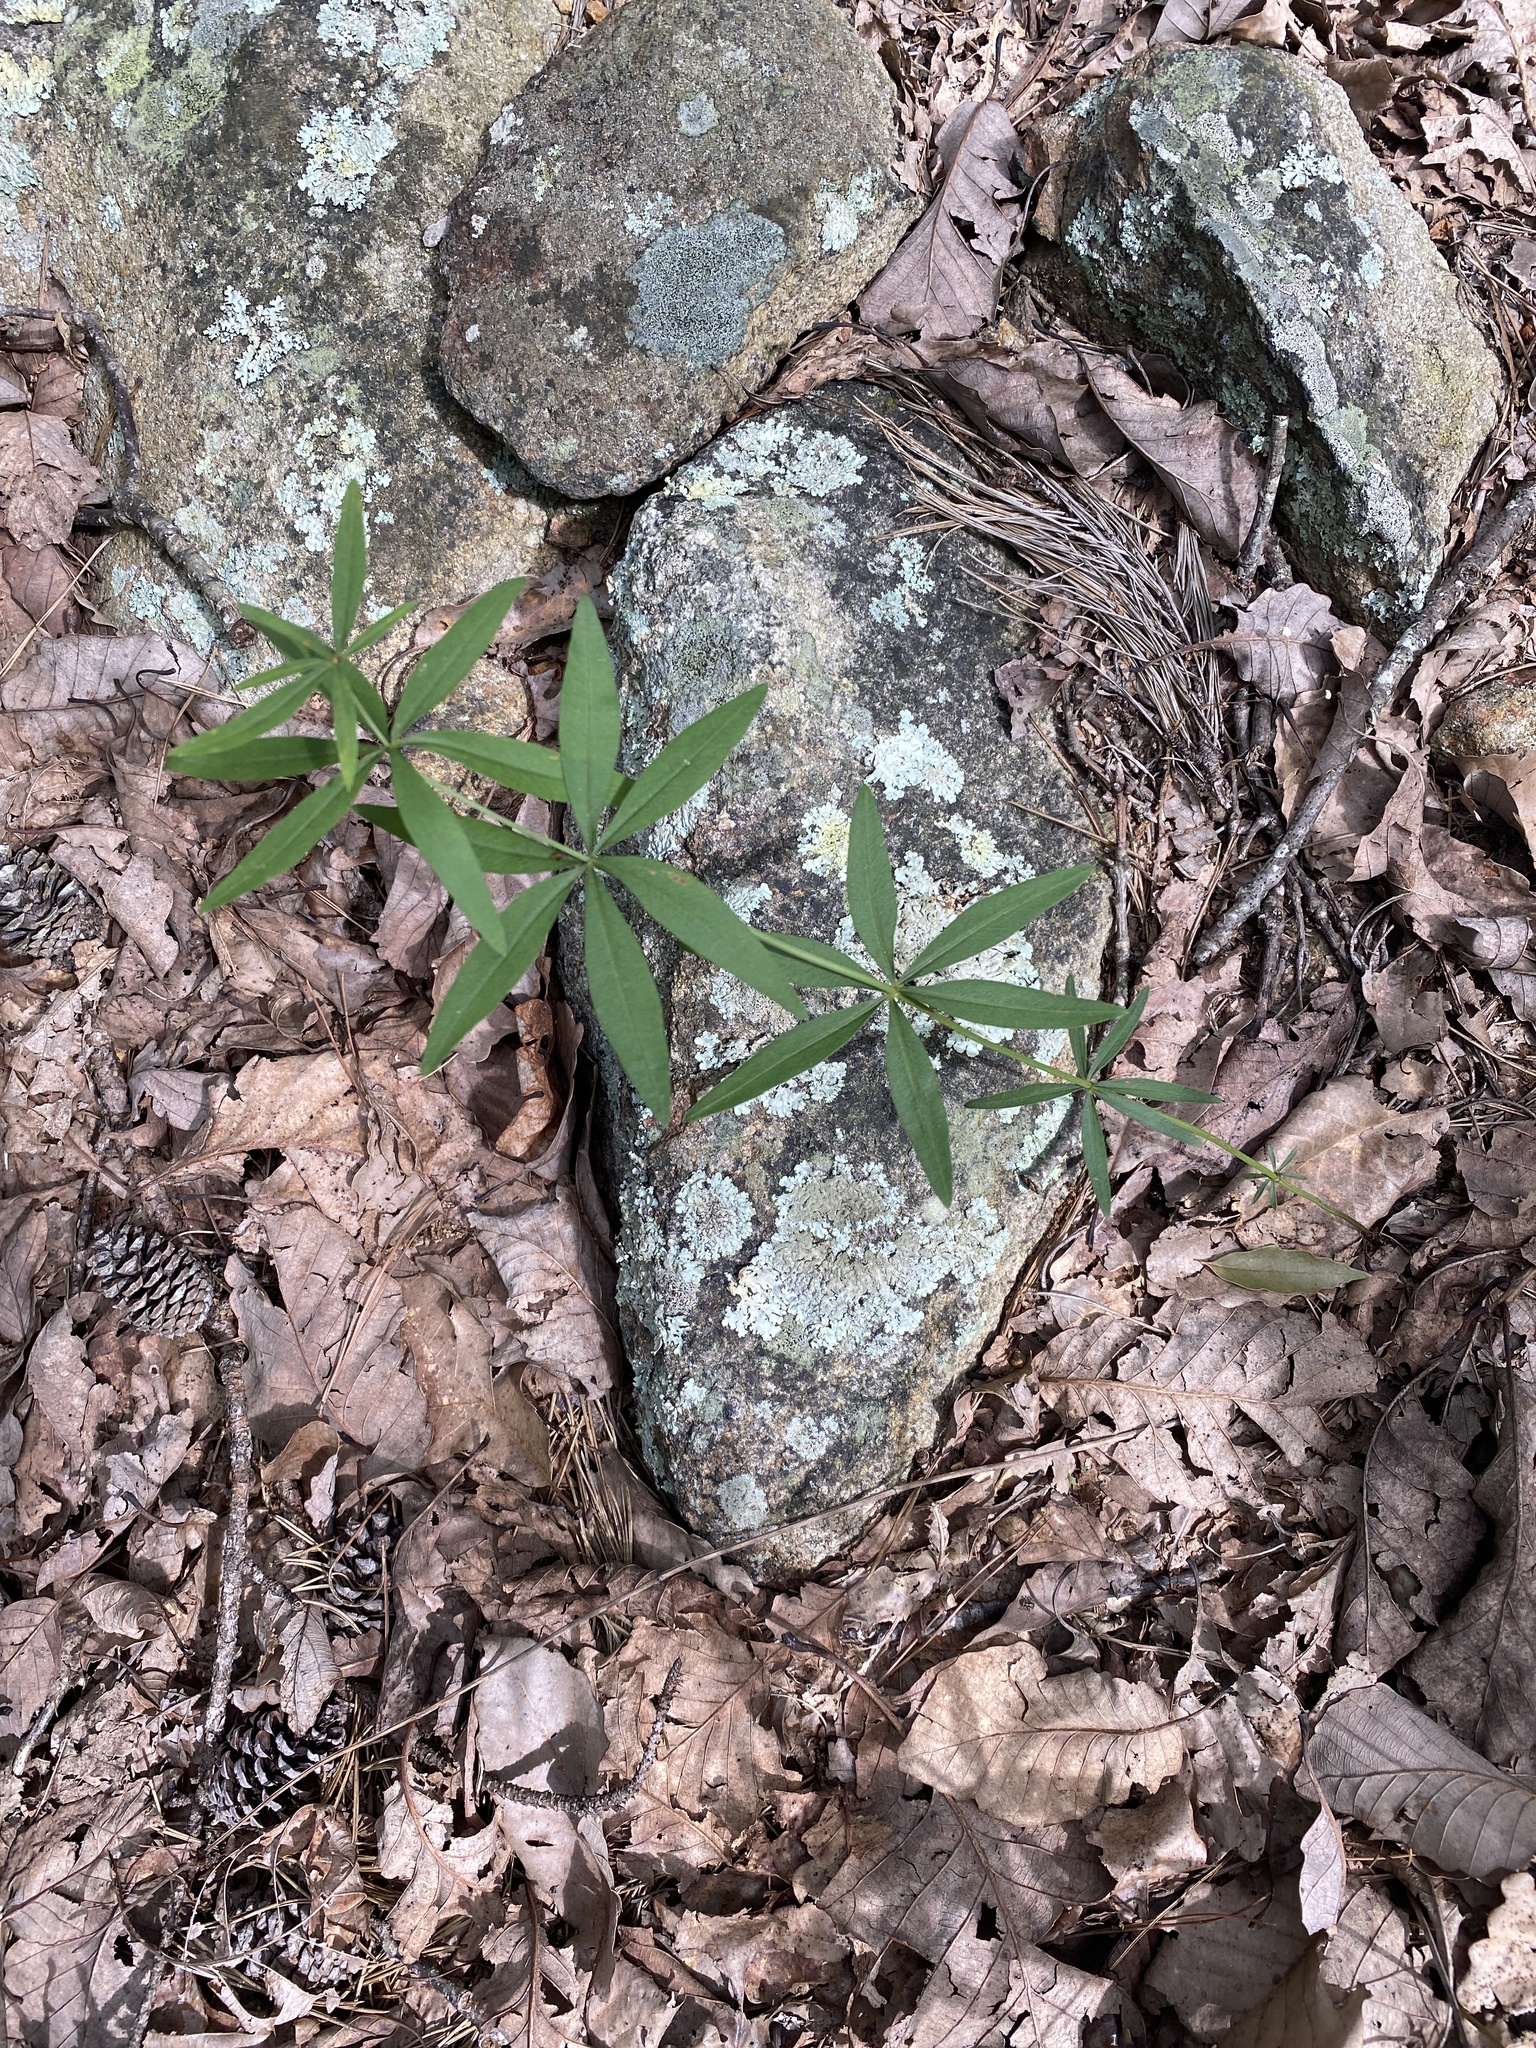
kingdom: Plantae
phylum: Tracheophyta
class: Magnoliopsida
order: Asterales
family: Asteraceae
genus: Coreopsis
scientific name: Coreopsis major
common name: Forest tickseed
